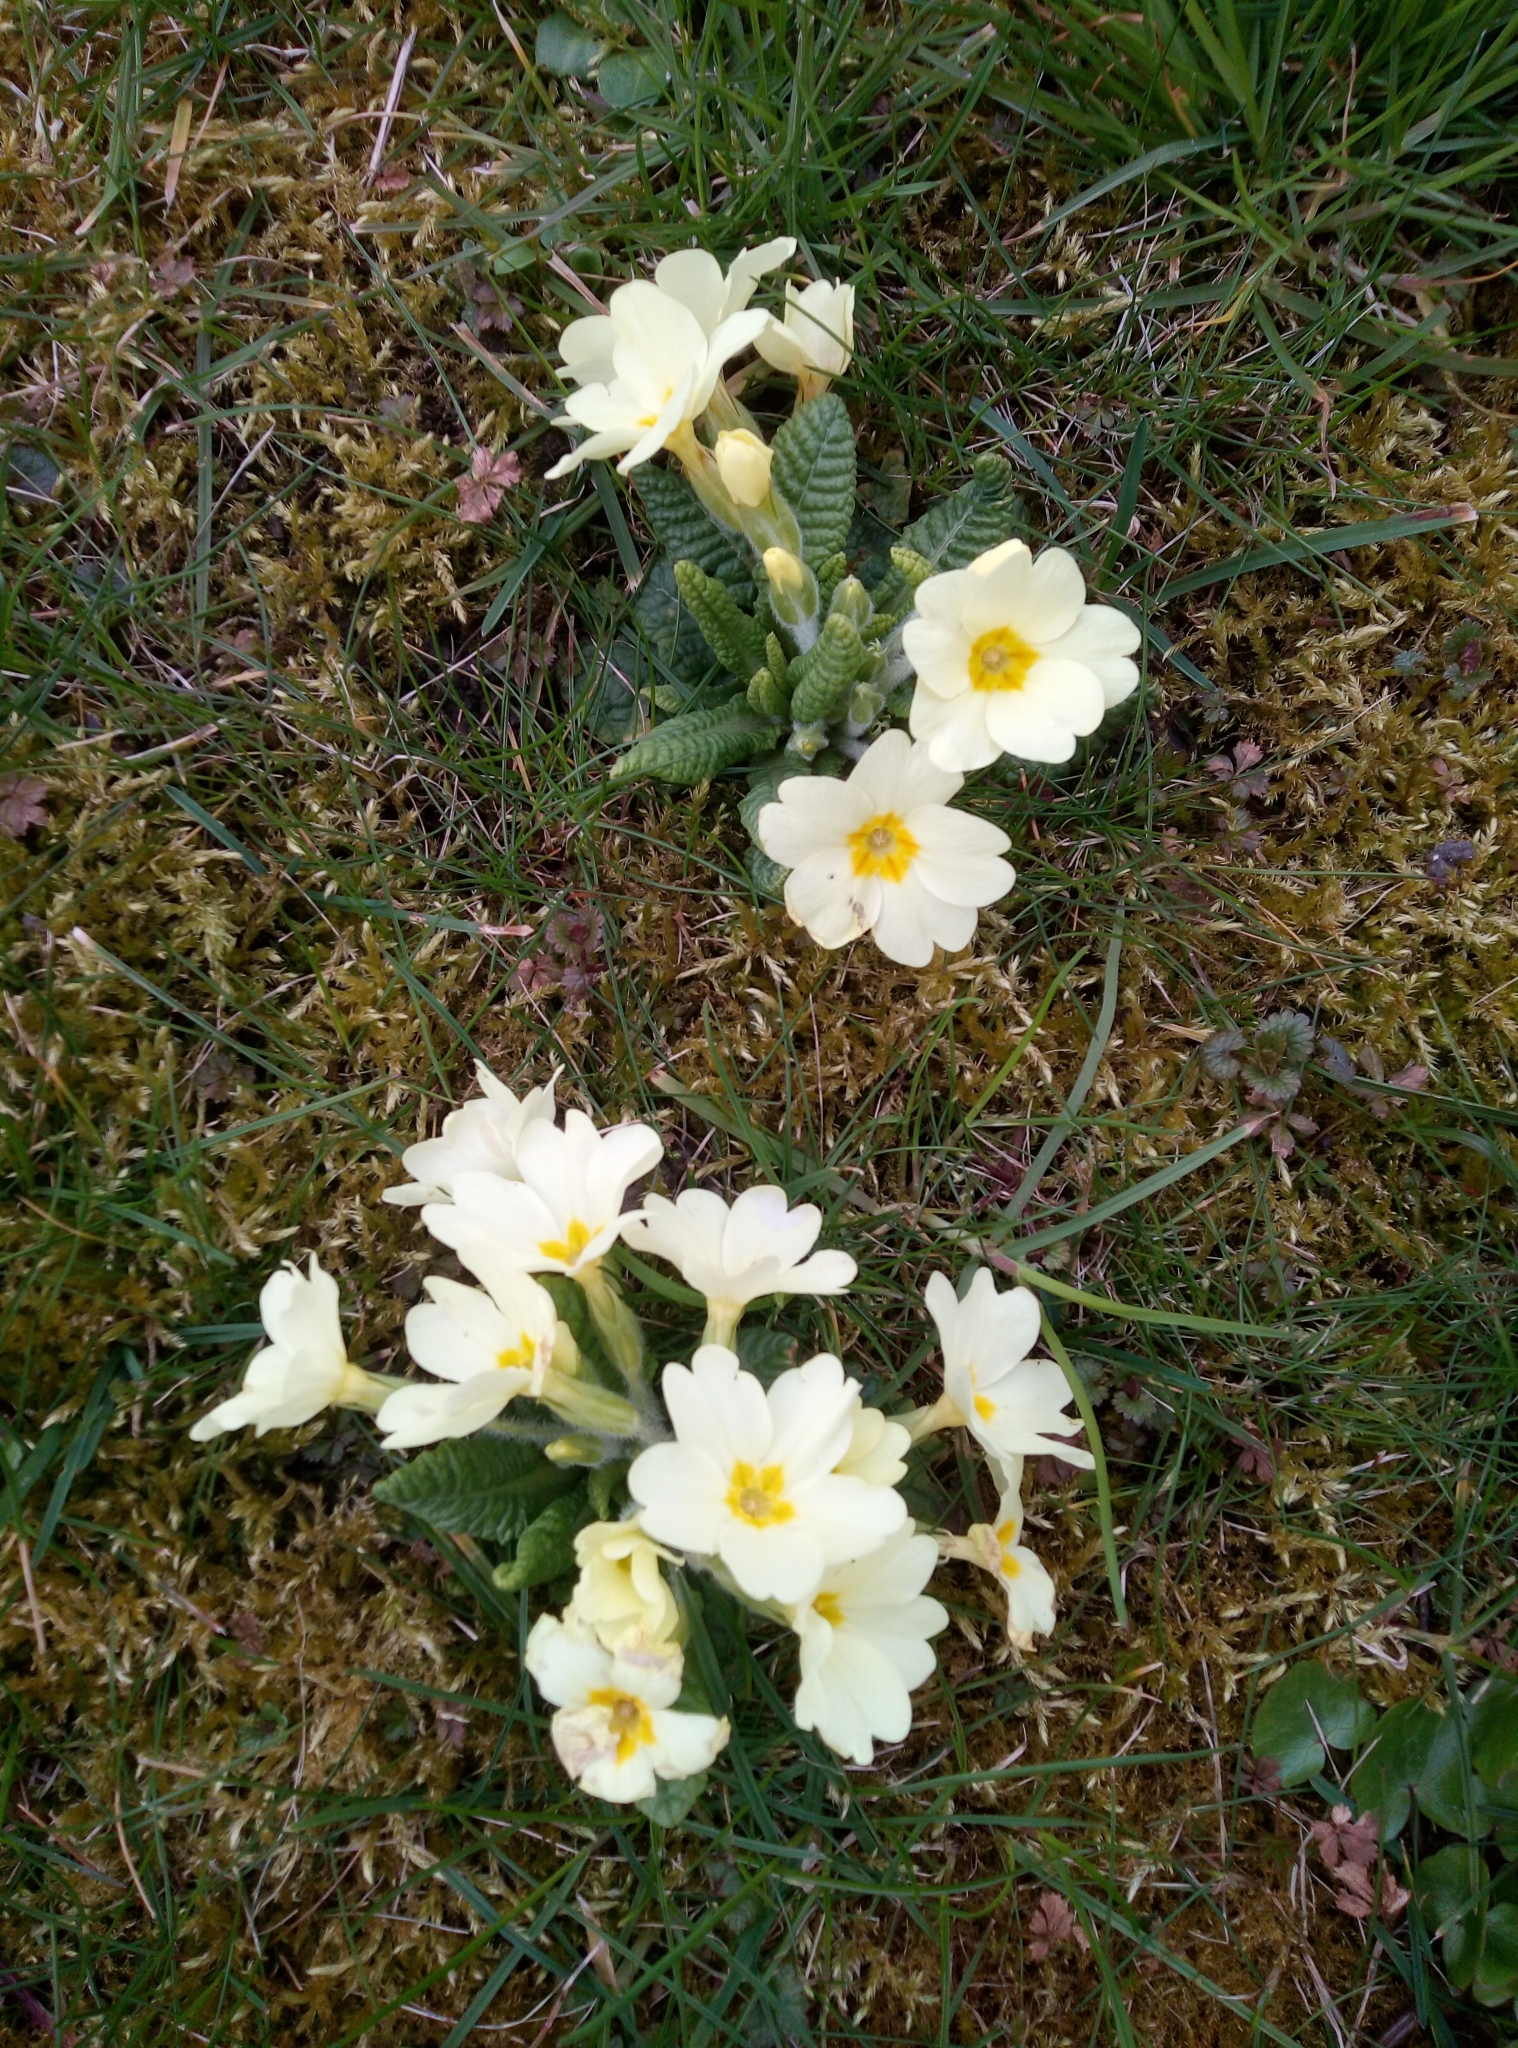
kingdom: Plantae
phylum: Tracheophyta
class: Magnoliopsida
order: Ericales
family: Primulaceae
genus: Primula
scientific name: Primula vulgaris
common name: Primrose
